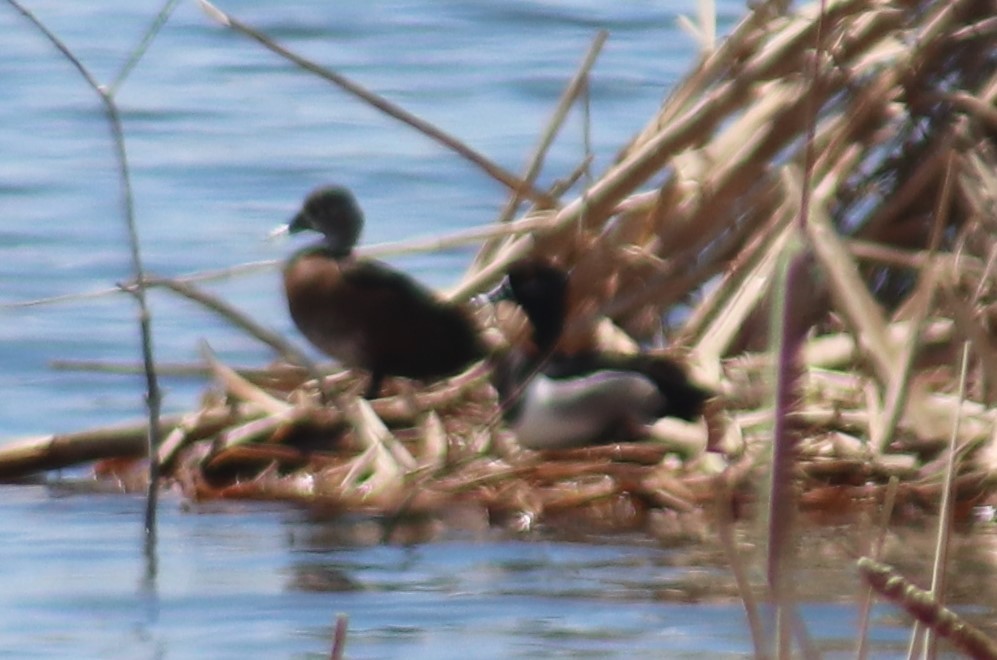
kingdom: Animalia
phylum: Chordata
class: Aves
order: Anseriformes
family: Anatidae
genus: Aythya
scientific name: Aythya collaris
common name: Ring-necked duck
